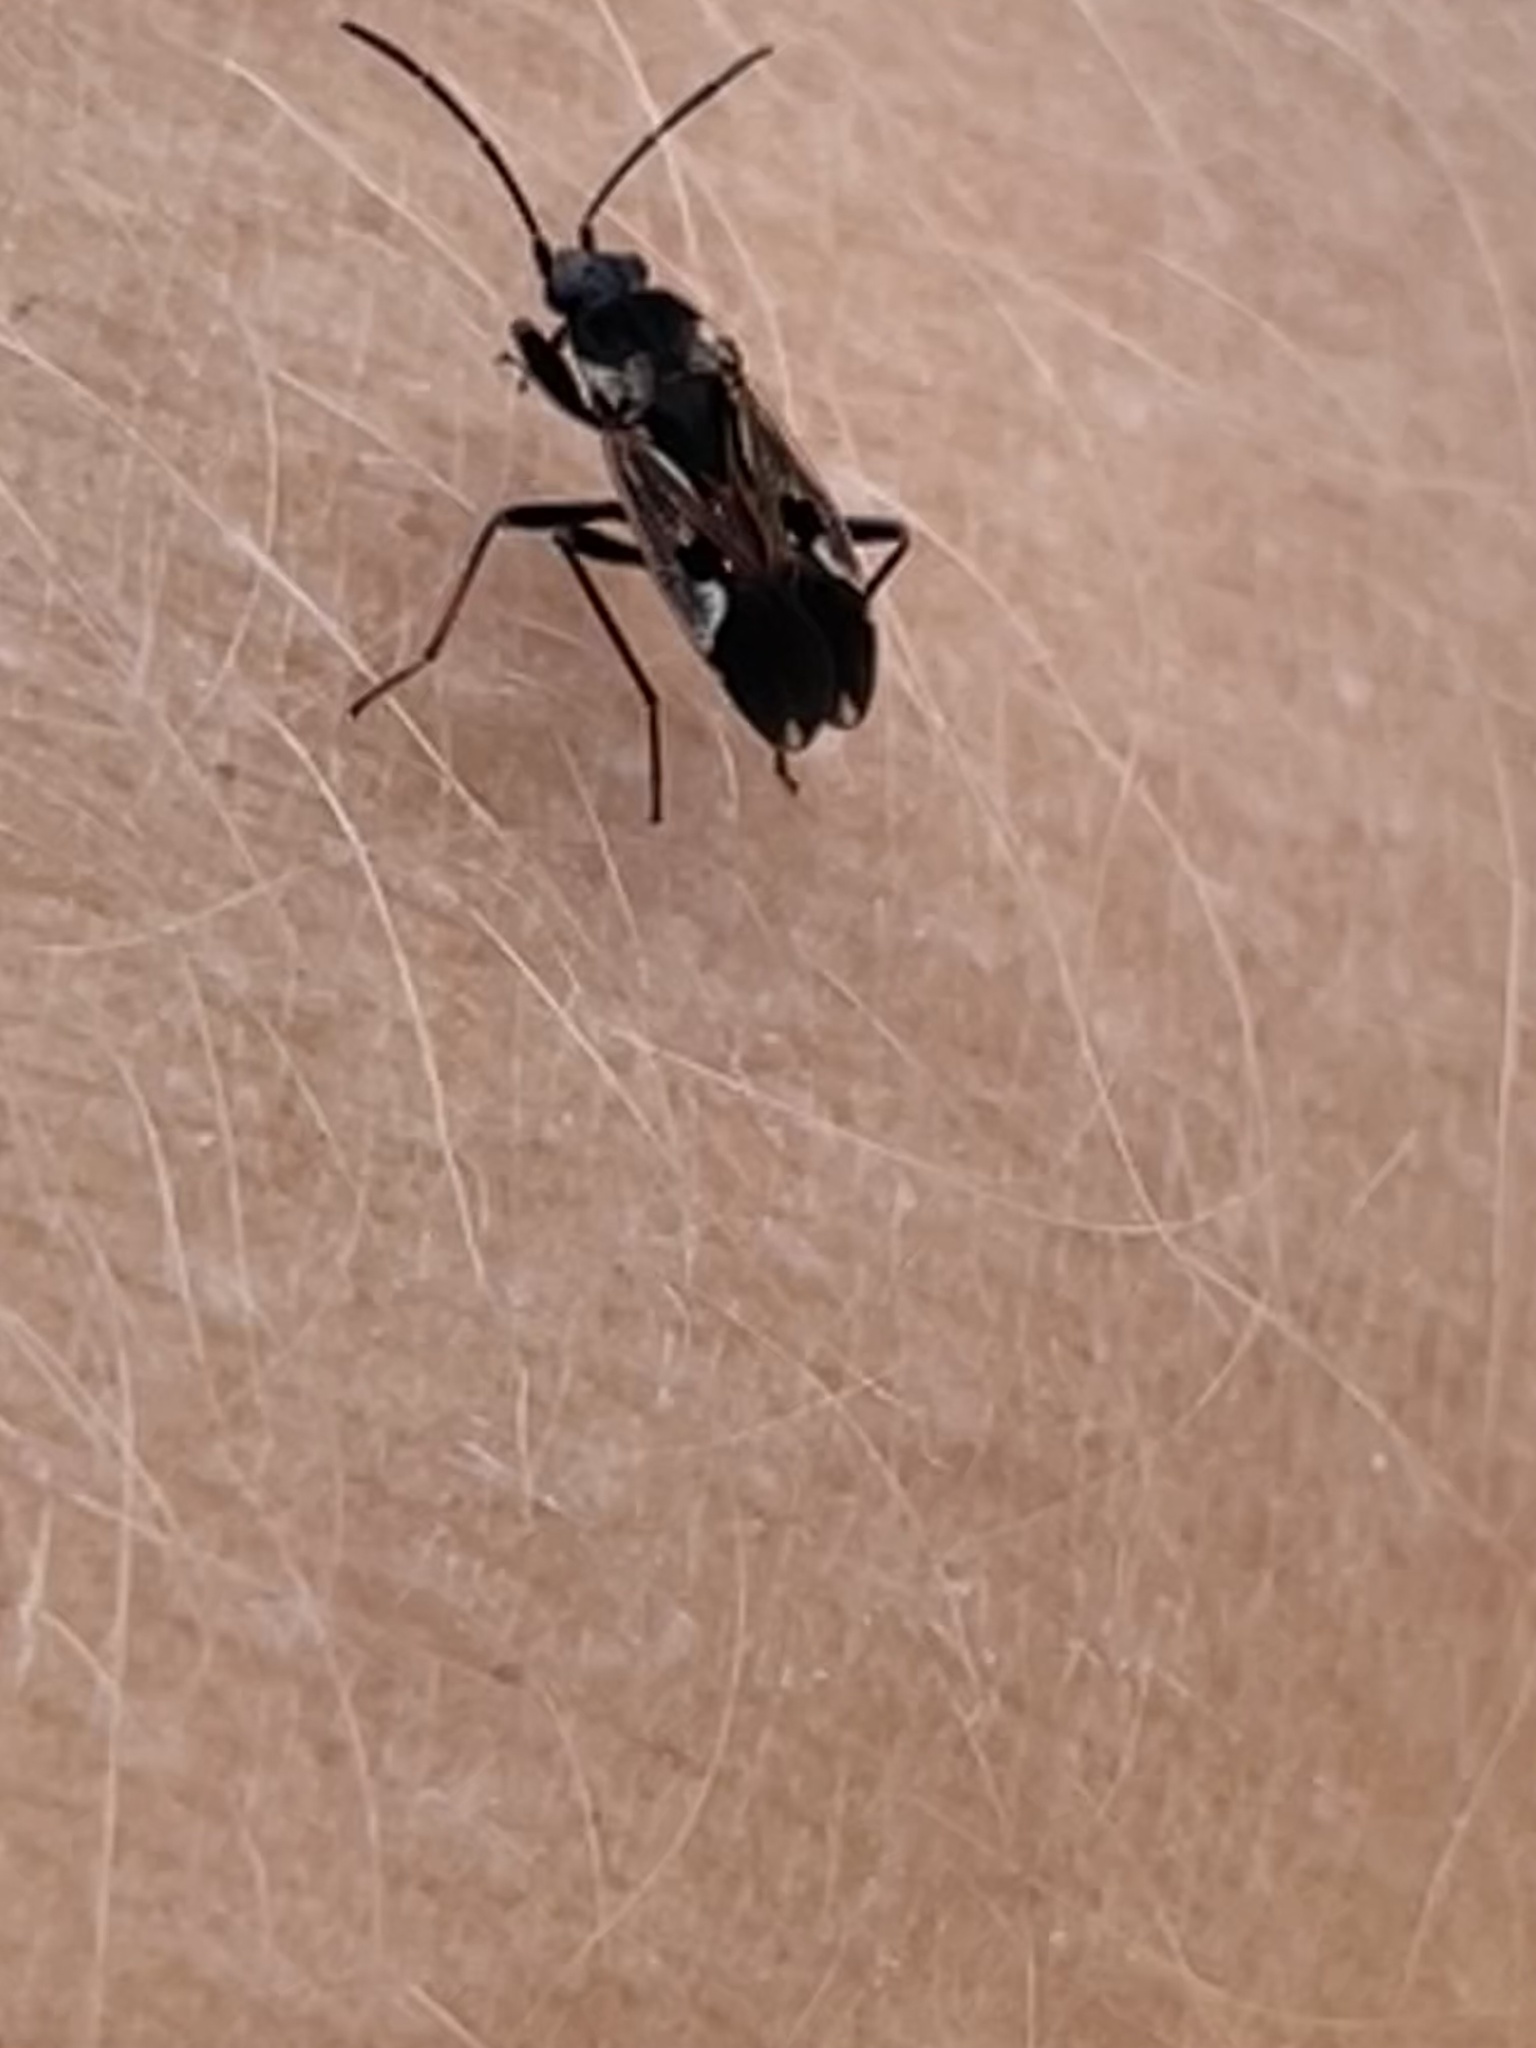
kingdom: Animalia
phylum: Arthropoda
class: Insecta
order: Hemiptera
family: Rhyparochromidae
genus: Rhyparochromus
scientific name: Rhyparochromus vulgaris
